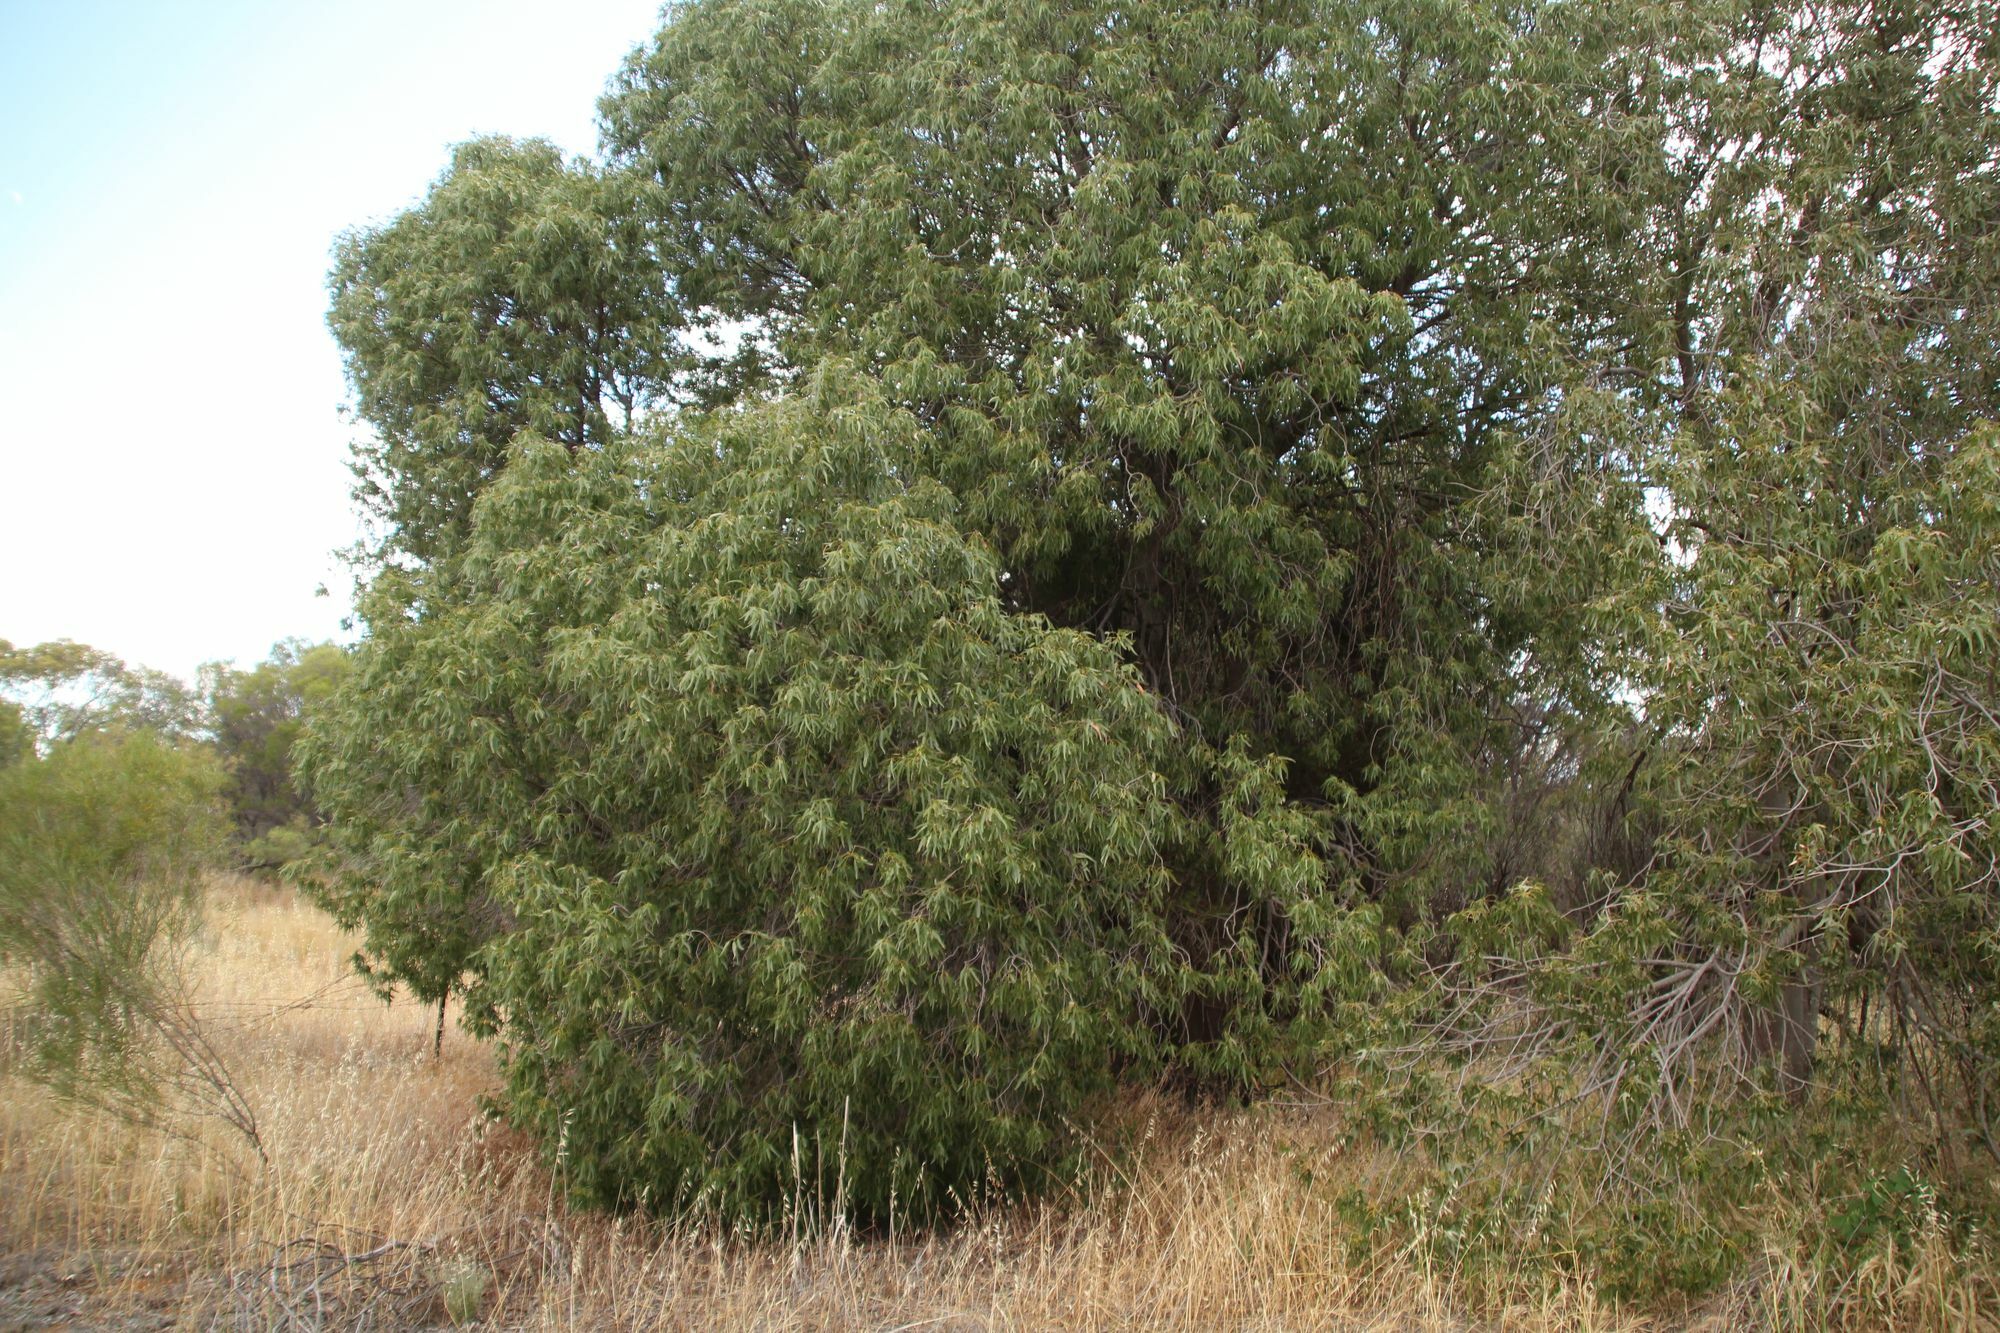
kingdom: Plantae
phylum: Tracheophyta
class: Magnoliopsida
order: Malvales
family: Malvaceae
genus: Brachychiton
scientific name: Brachychiton gregorii
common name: Desert kurrajong
